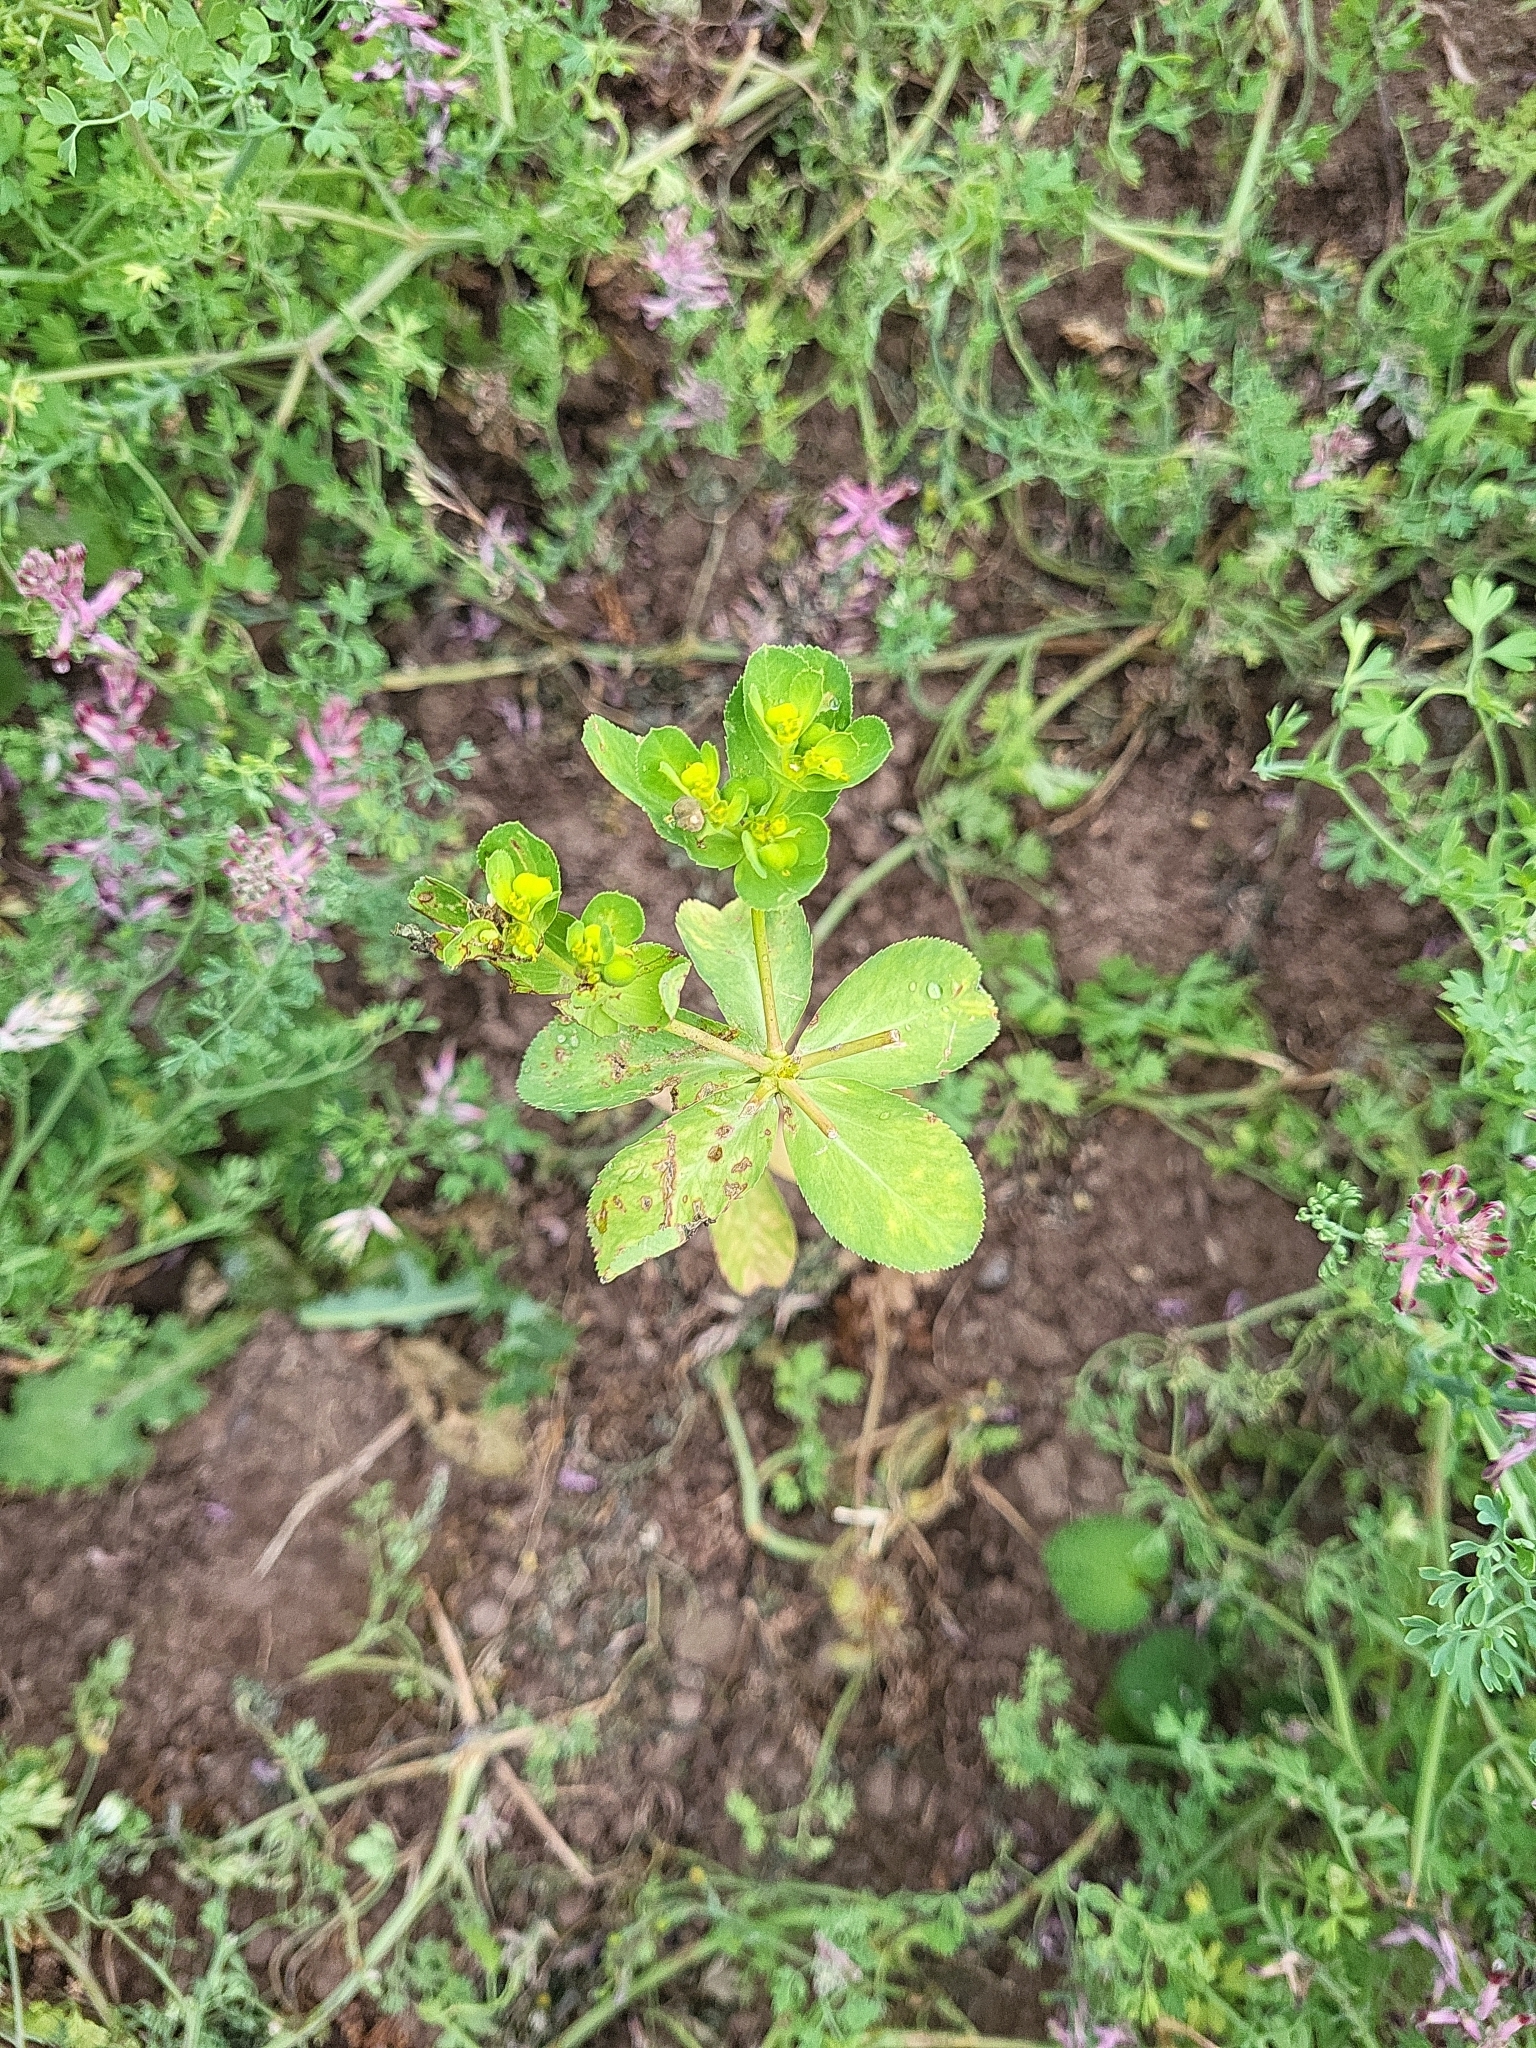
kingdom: Plantae
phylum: Tracheophyta
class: Magnoliopsida
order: Malpighiales
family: Euphorbiaceae
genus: Euphorbia
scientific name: Euphorbia helioscopia
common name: Sun spurge
